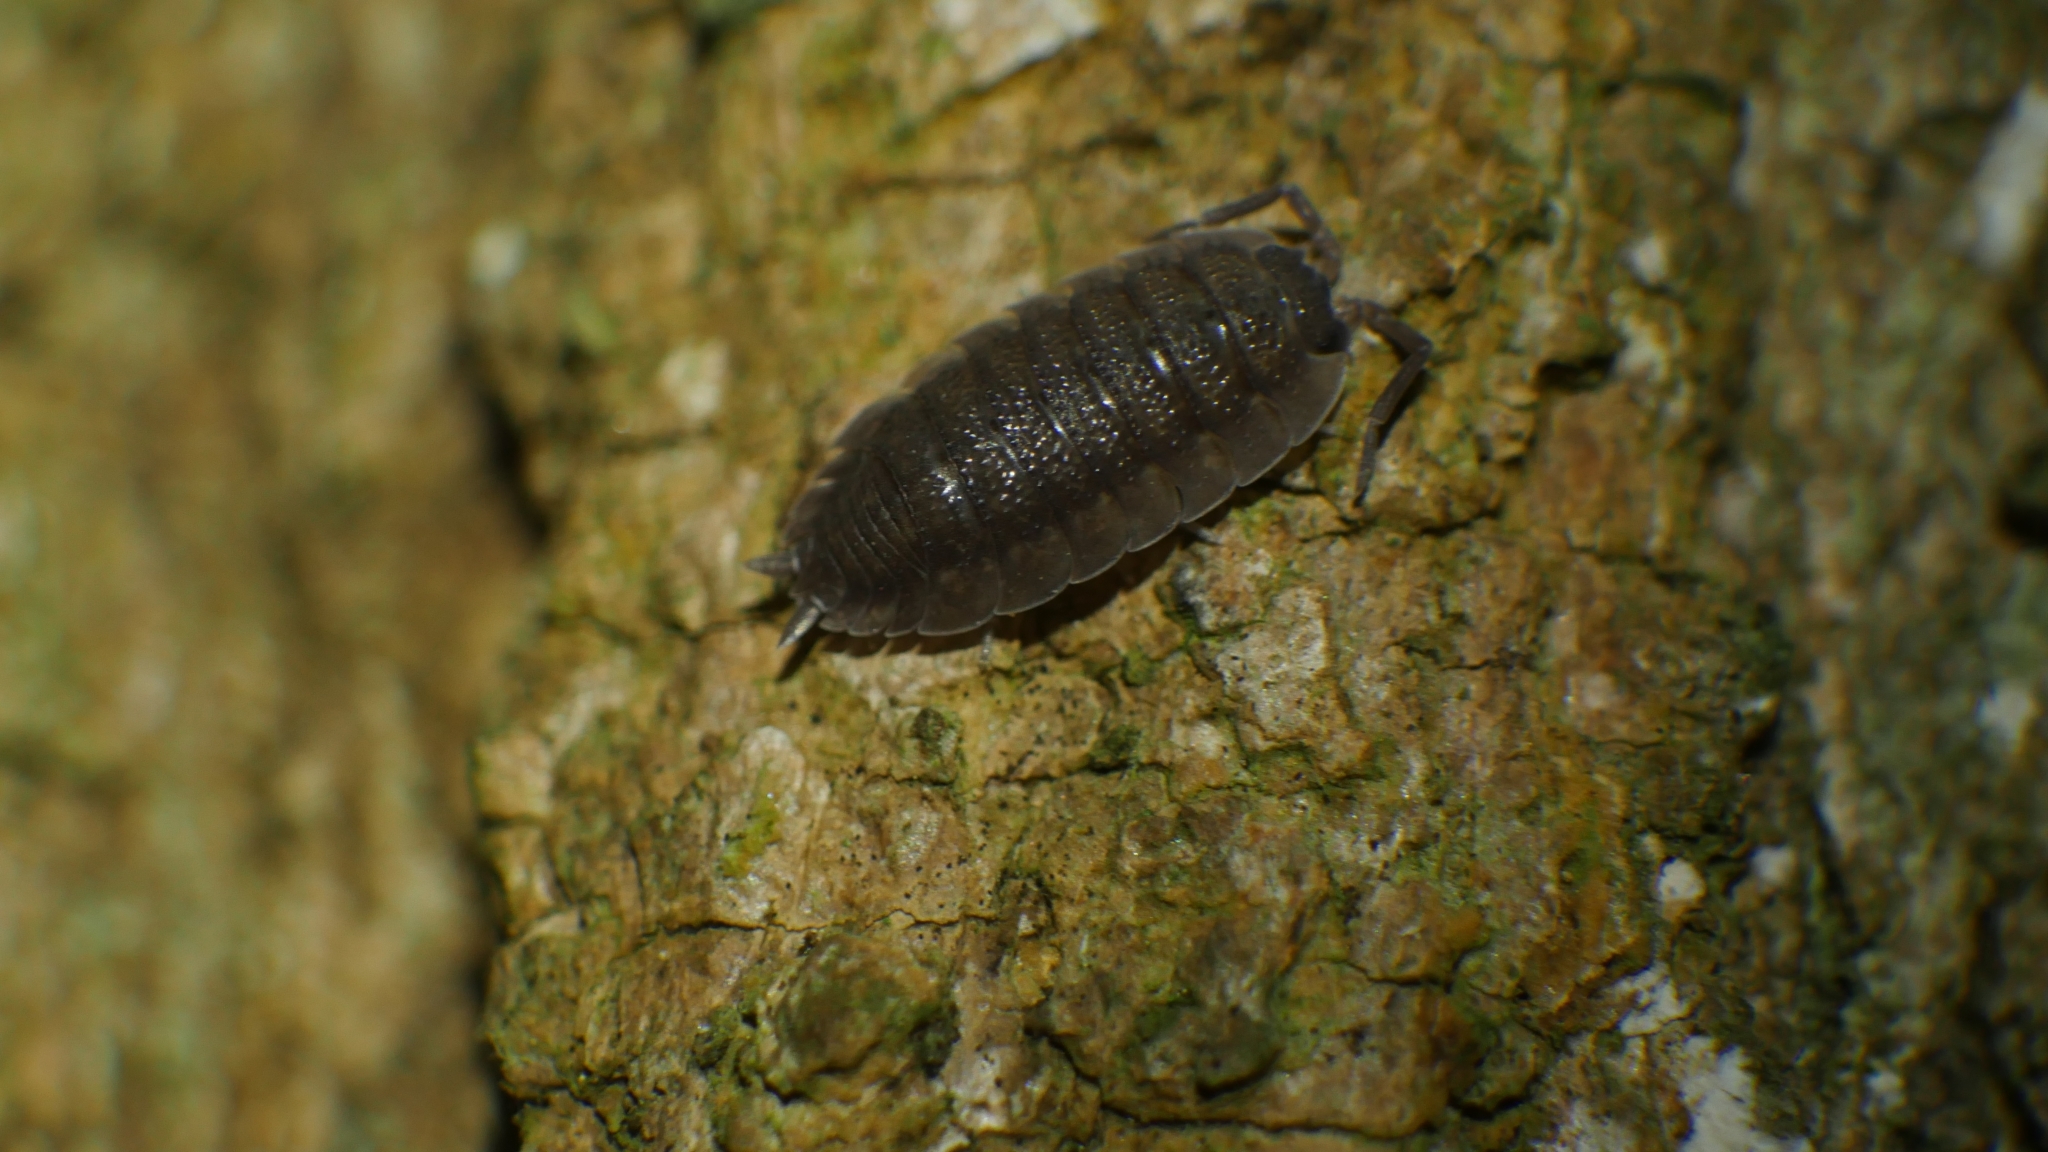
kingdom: Animalia
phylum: Arthropoda
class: Malacostraca
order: Isopoda
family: Porcellionidae
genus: Porcellio
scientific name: Porcellio scaber
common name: Common rough woodlouse
